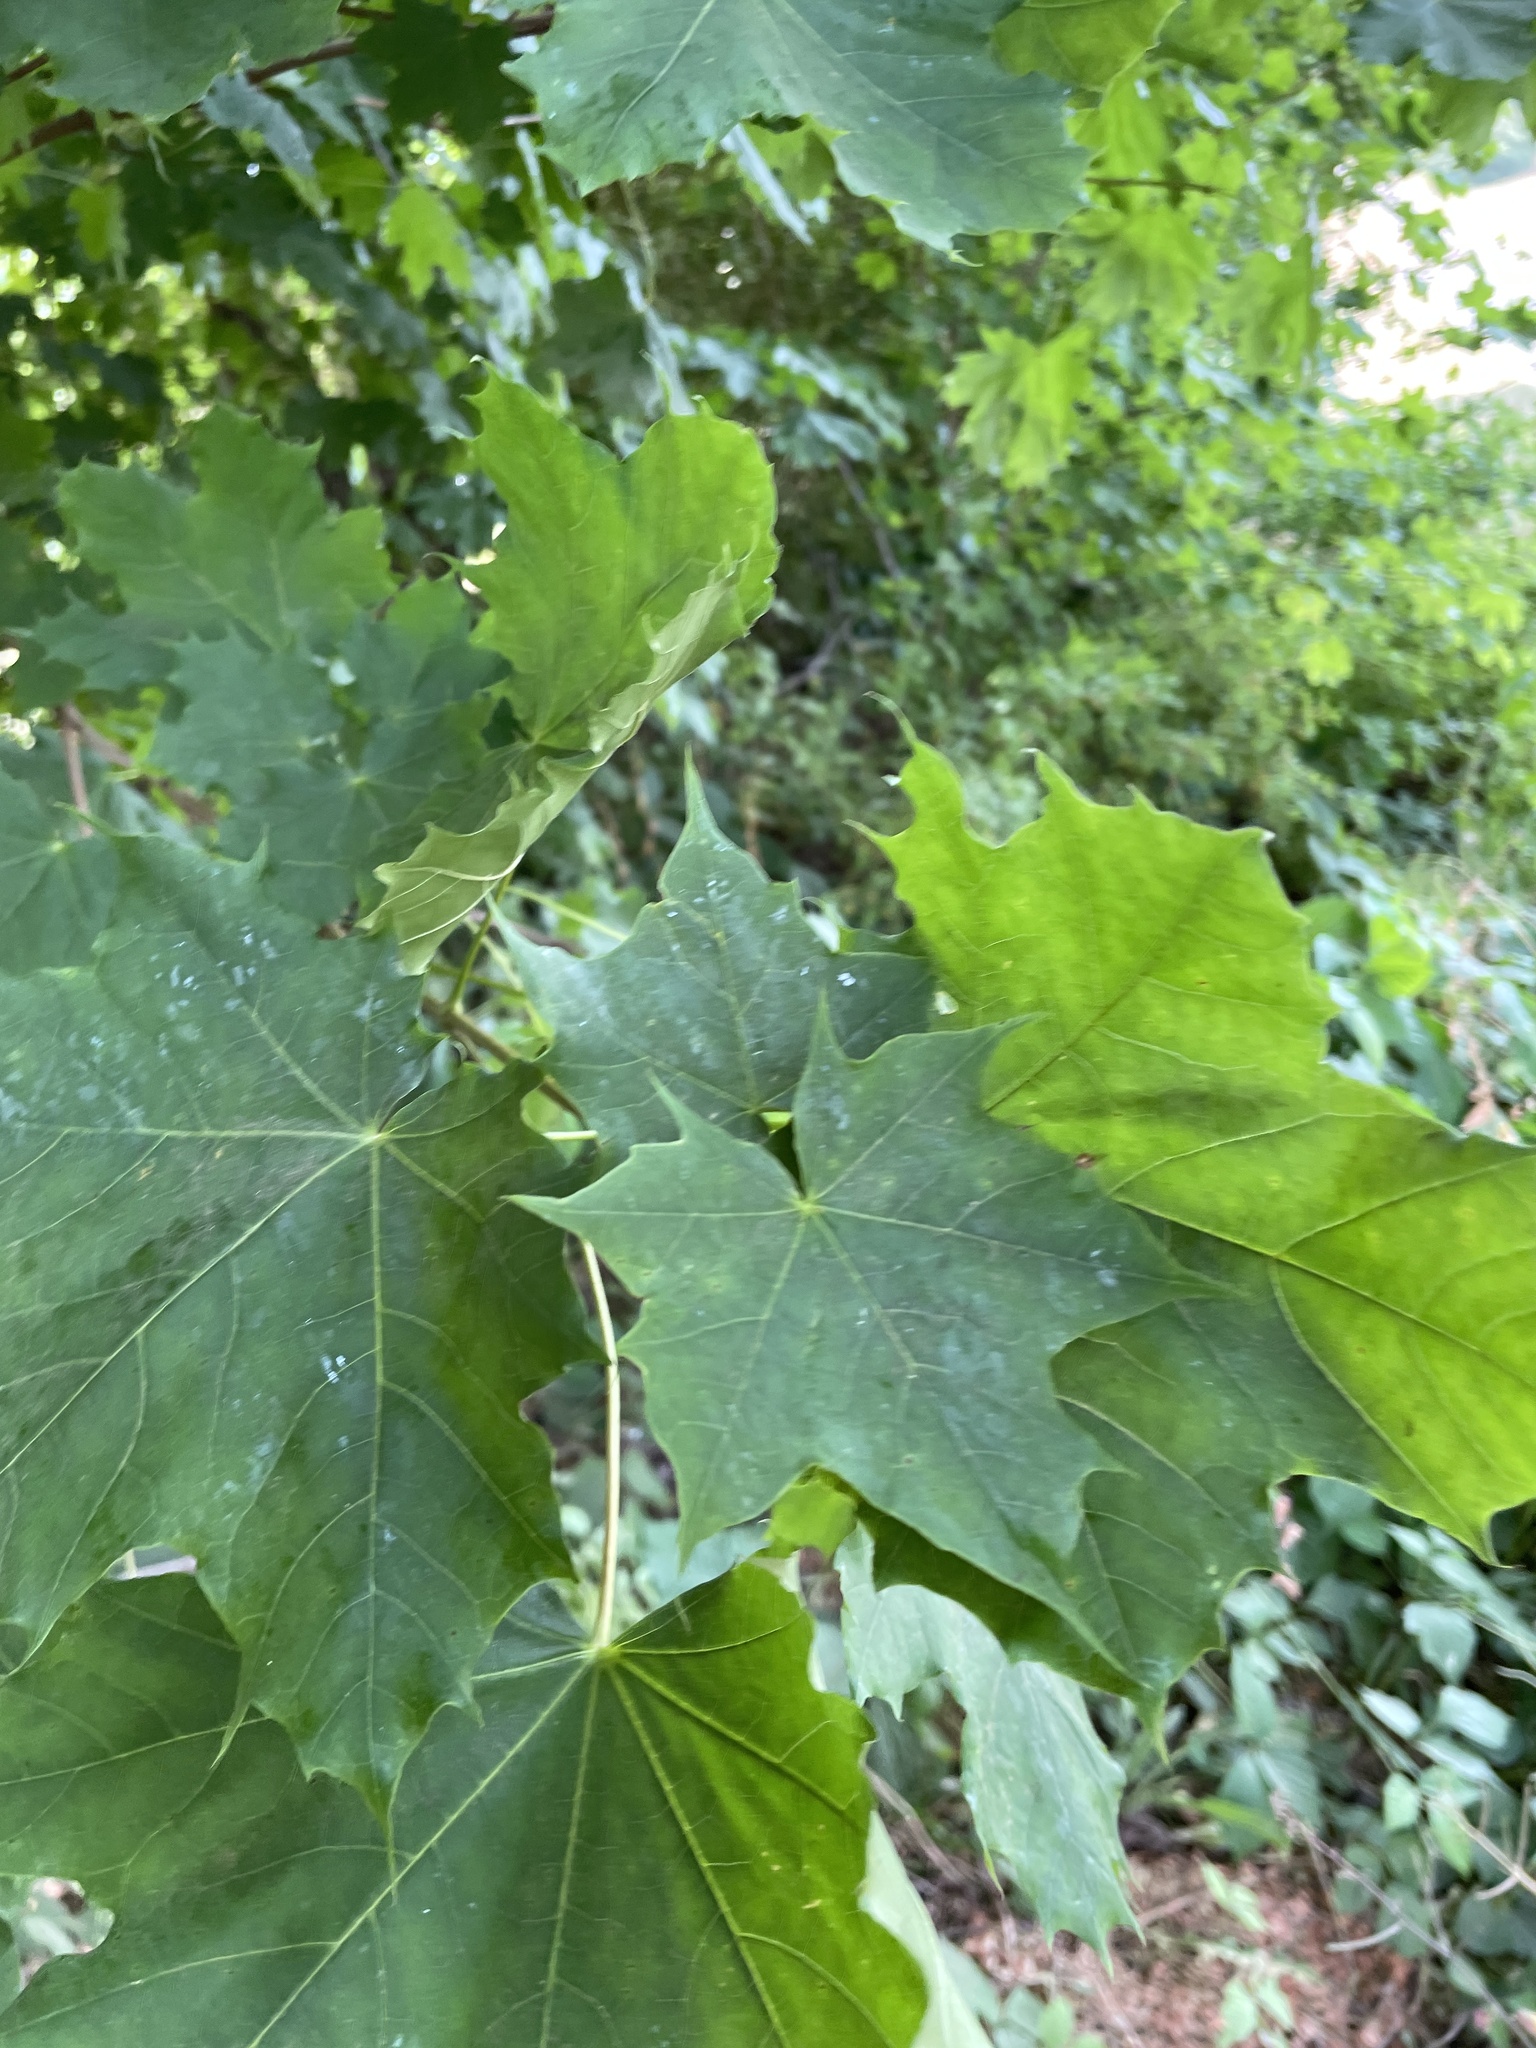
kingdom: Plantae
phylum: Tracheophyta
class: Magnoliopsida
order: Sapindales
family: Sapindaceae
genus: Acer
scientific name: Acer platanoides
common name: Norway maple
